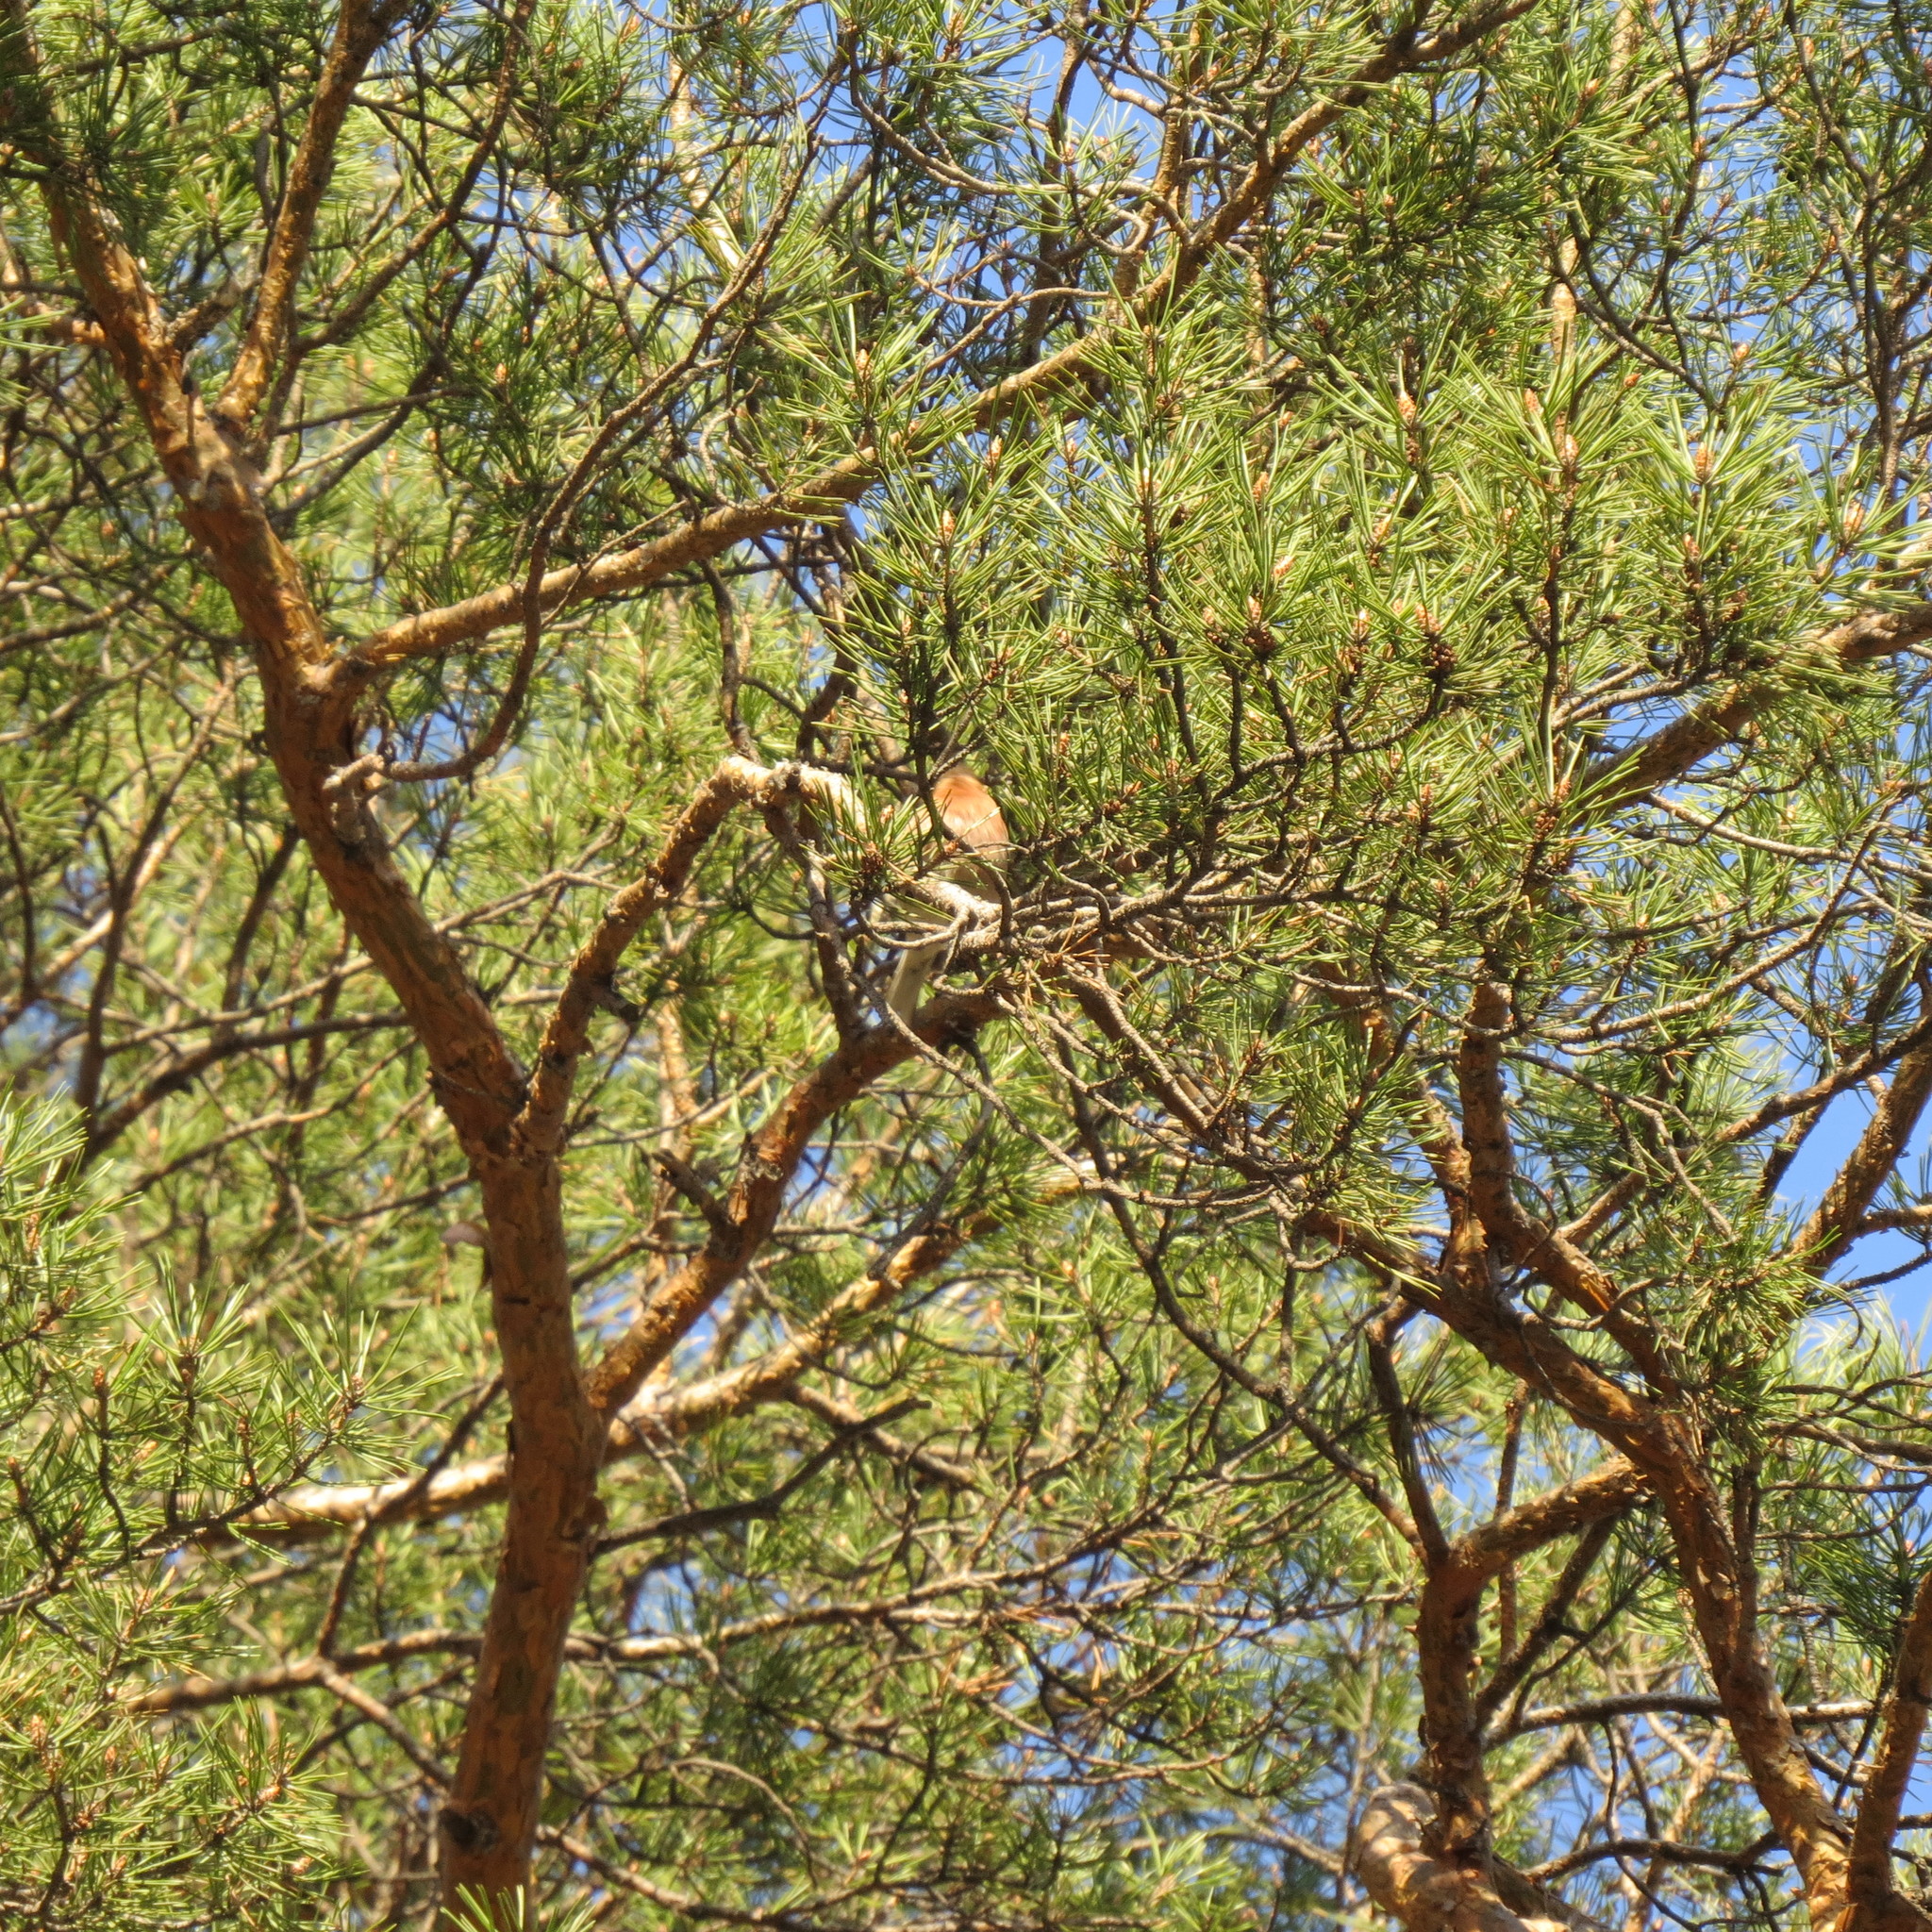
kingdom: Animalia
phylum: Chordata
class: Aves
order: Passeriformes
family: Fringillidae
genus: Fringilla
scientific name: Fringilla coelebs
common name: Common chaffinch
